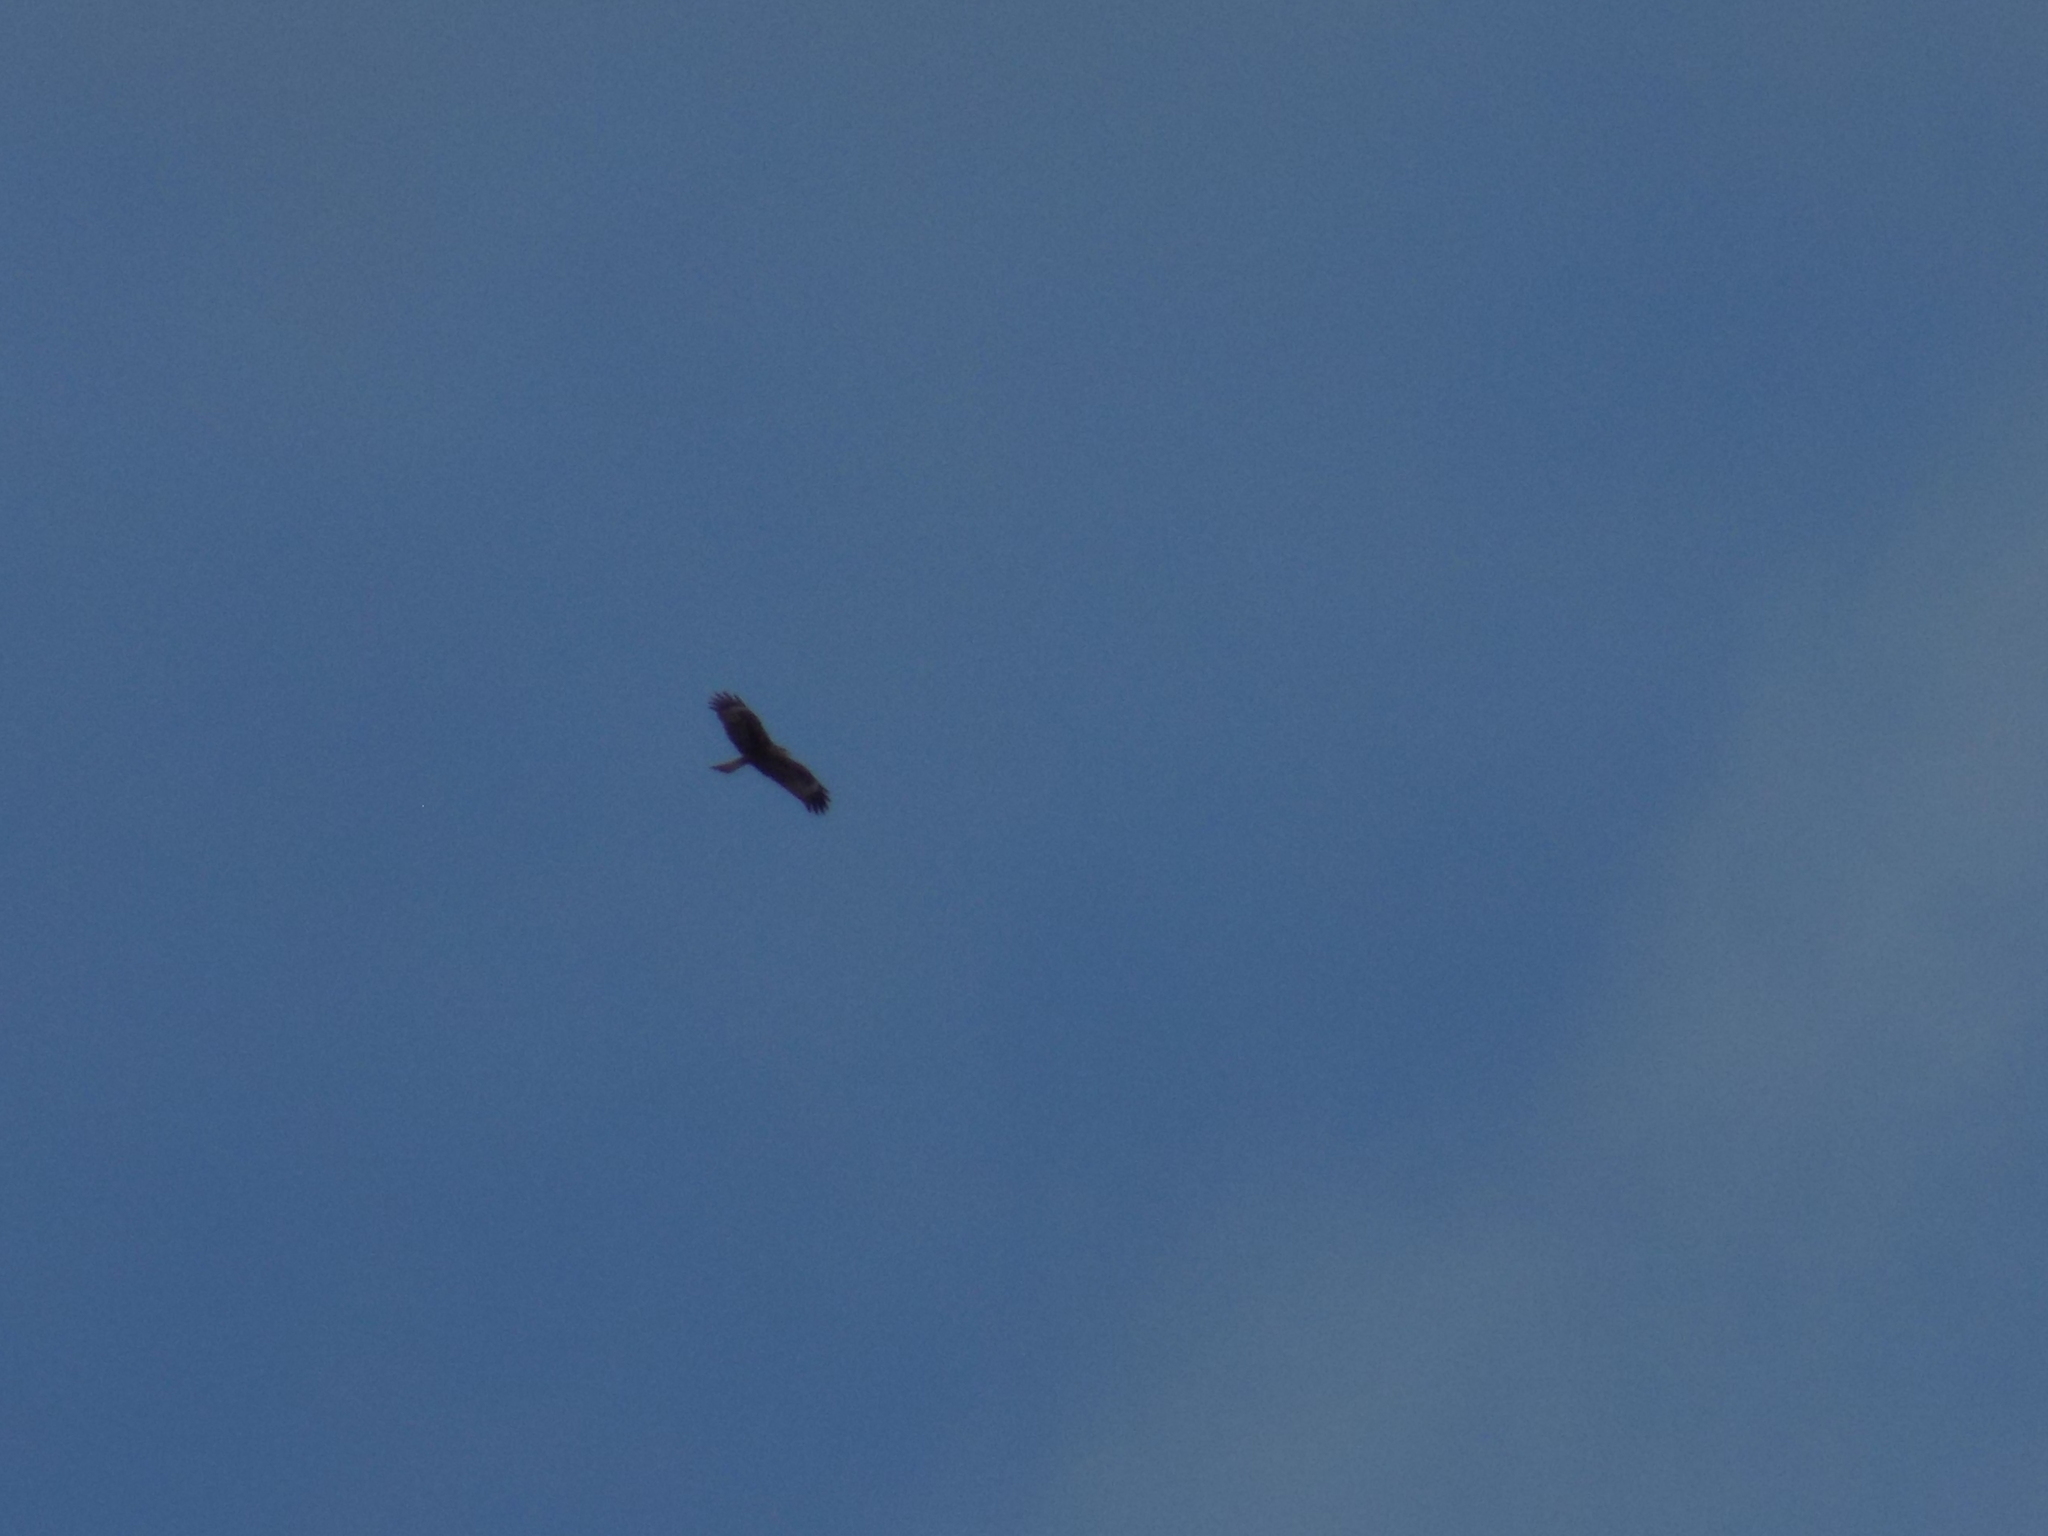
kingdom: Animalia
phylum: Chordata
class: Aves
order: Accipitriformes
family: Accipitridae
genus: Milvus
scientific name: Milvus migrans
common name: Black kite
